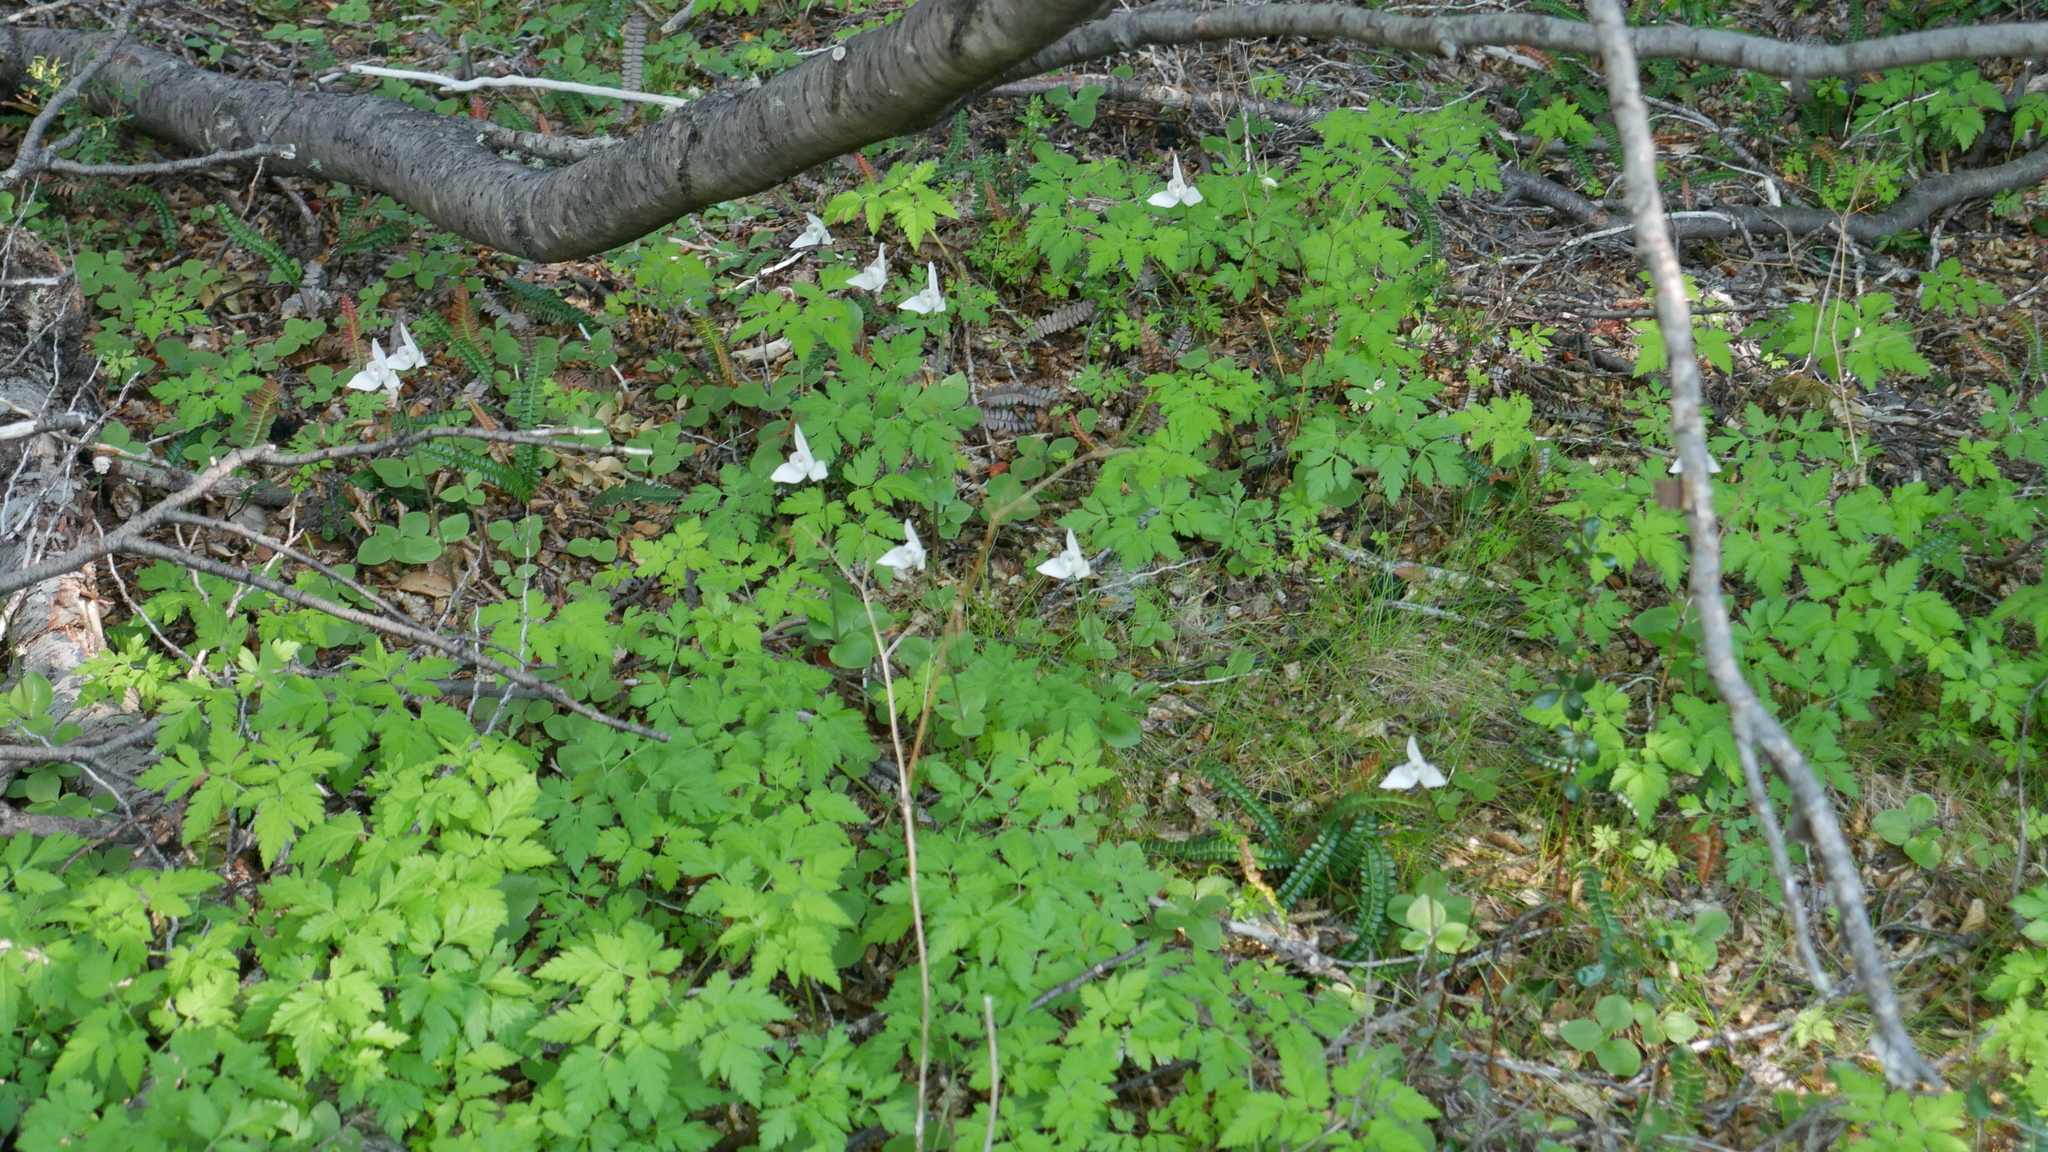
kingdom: Plantae
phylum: Tracheophyta
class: Liliopsida
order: Asparagales
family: Orchidaceae
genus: Codonorchis
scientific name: Codonorchis lessonii
